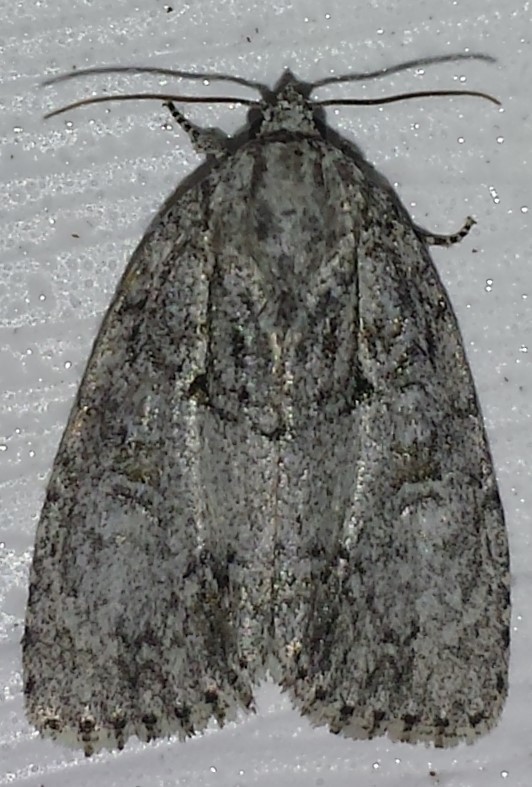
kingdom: Animalia
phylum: Arthropoda
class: Insecta
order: Lepidoptera
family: Noctuidae
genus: Acronicta
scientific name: Acronicta retardata
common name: Maple dagger
